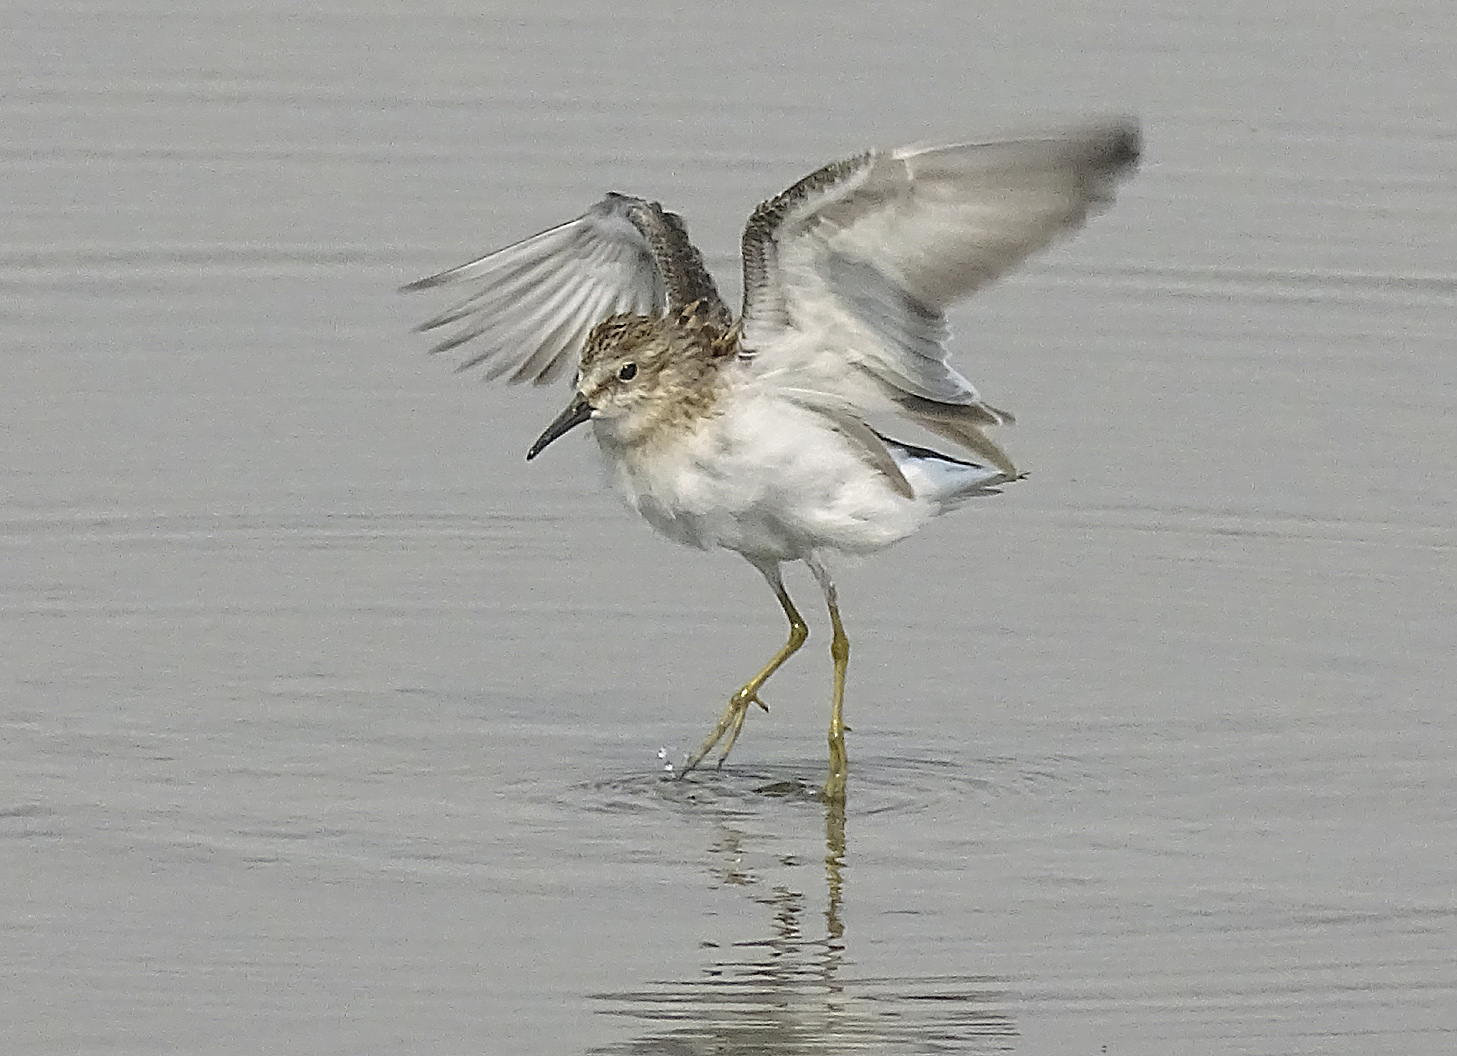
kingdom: Animalia
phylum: Chordata
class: Aves
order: Charadriiformes
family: Scolopacidae
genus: Calidris
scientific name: Calidris minutilla
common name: Least sandpiper
